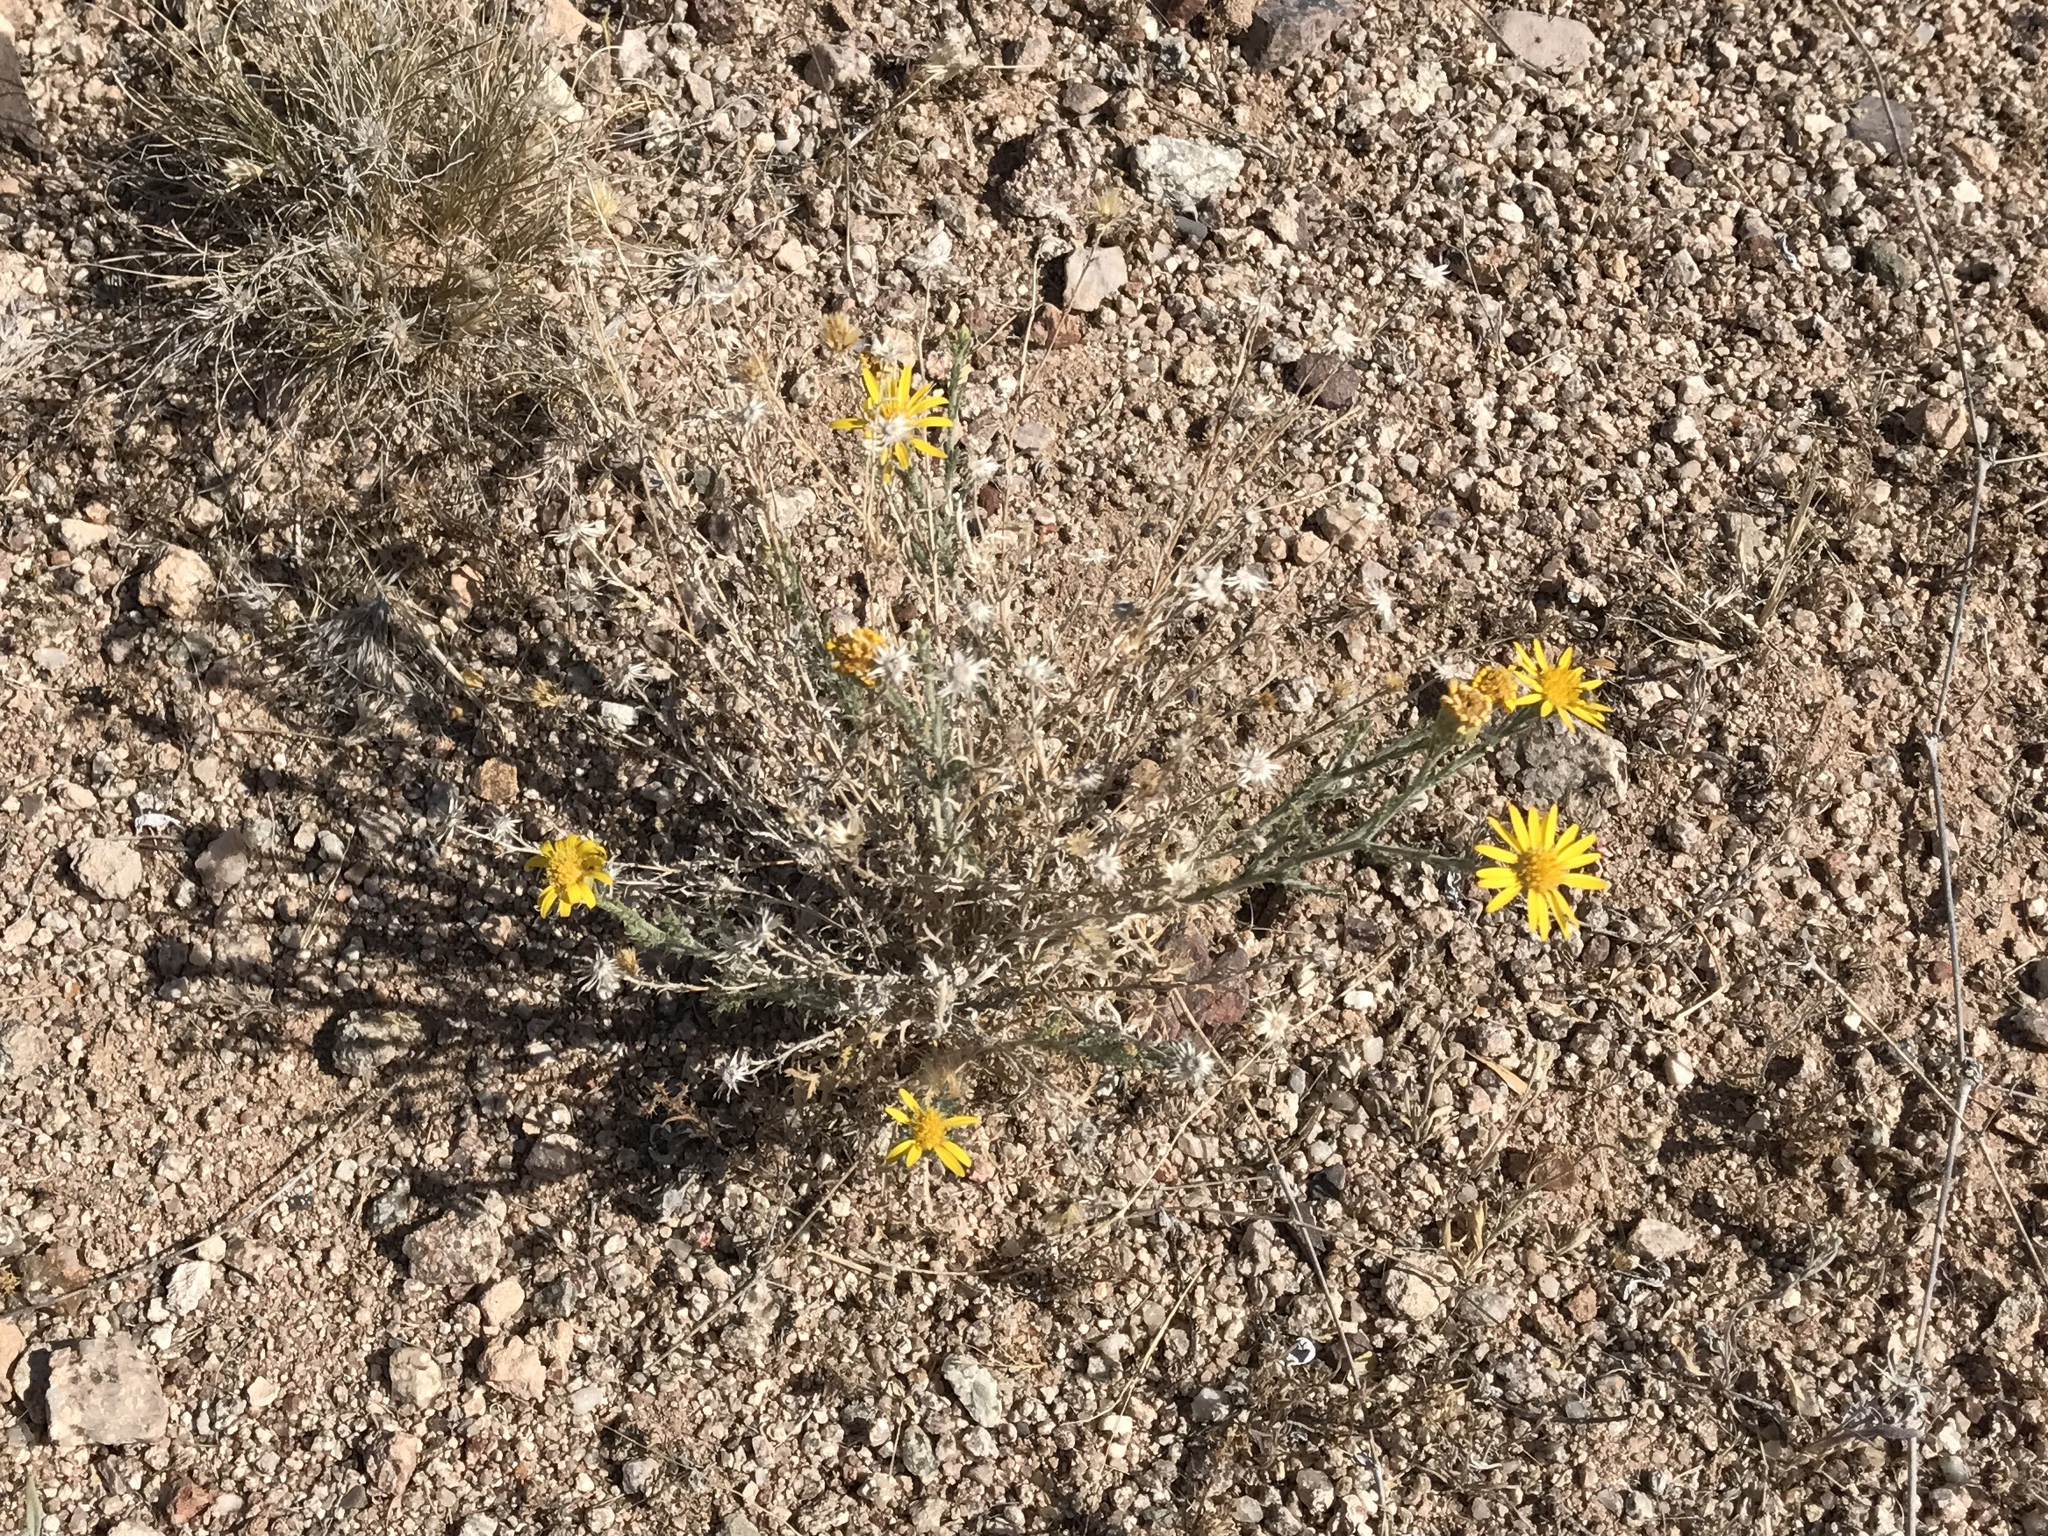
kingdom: Plantae
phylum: Tracheophyta
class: Magnoliopsida
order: Asterales
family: Asteraceae
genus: Xanthisma
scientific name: Xanthisma spinulosum
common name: Spiny goldenweed
